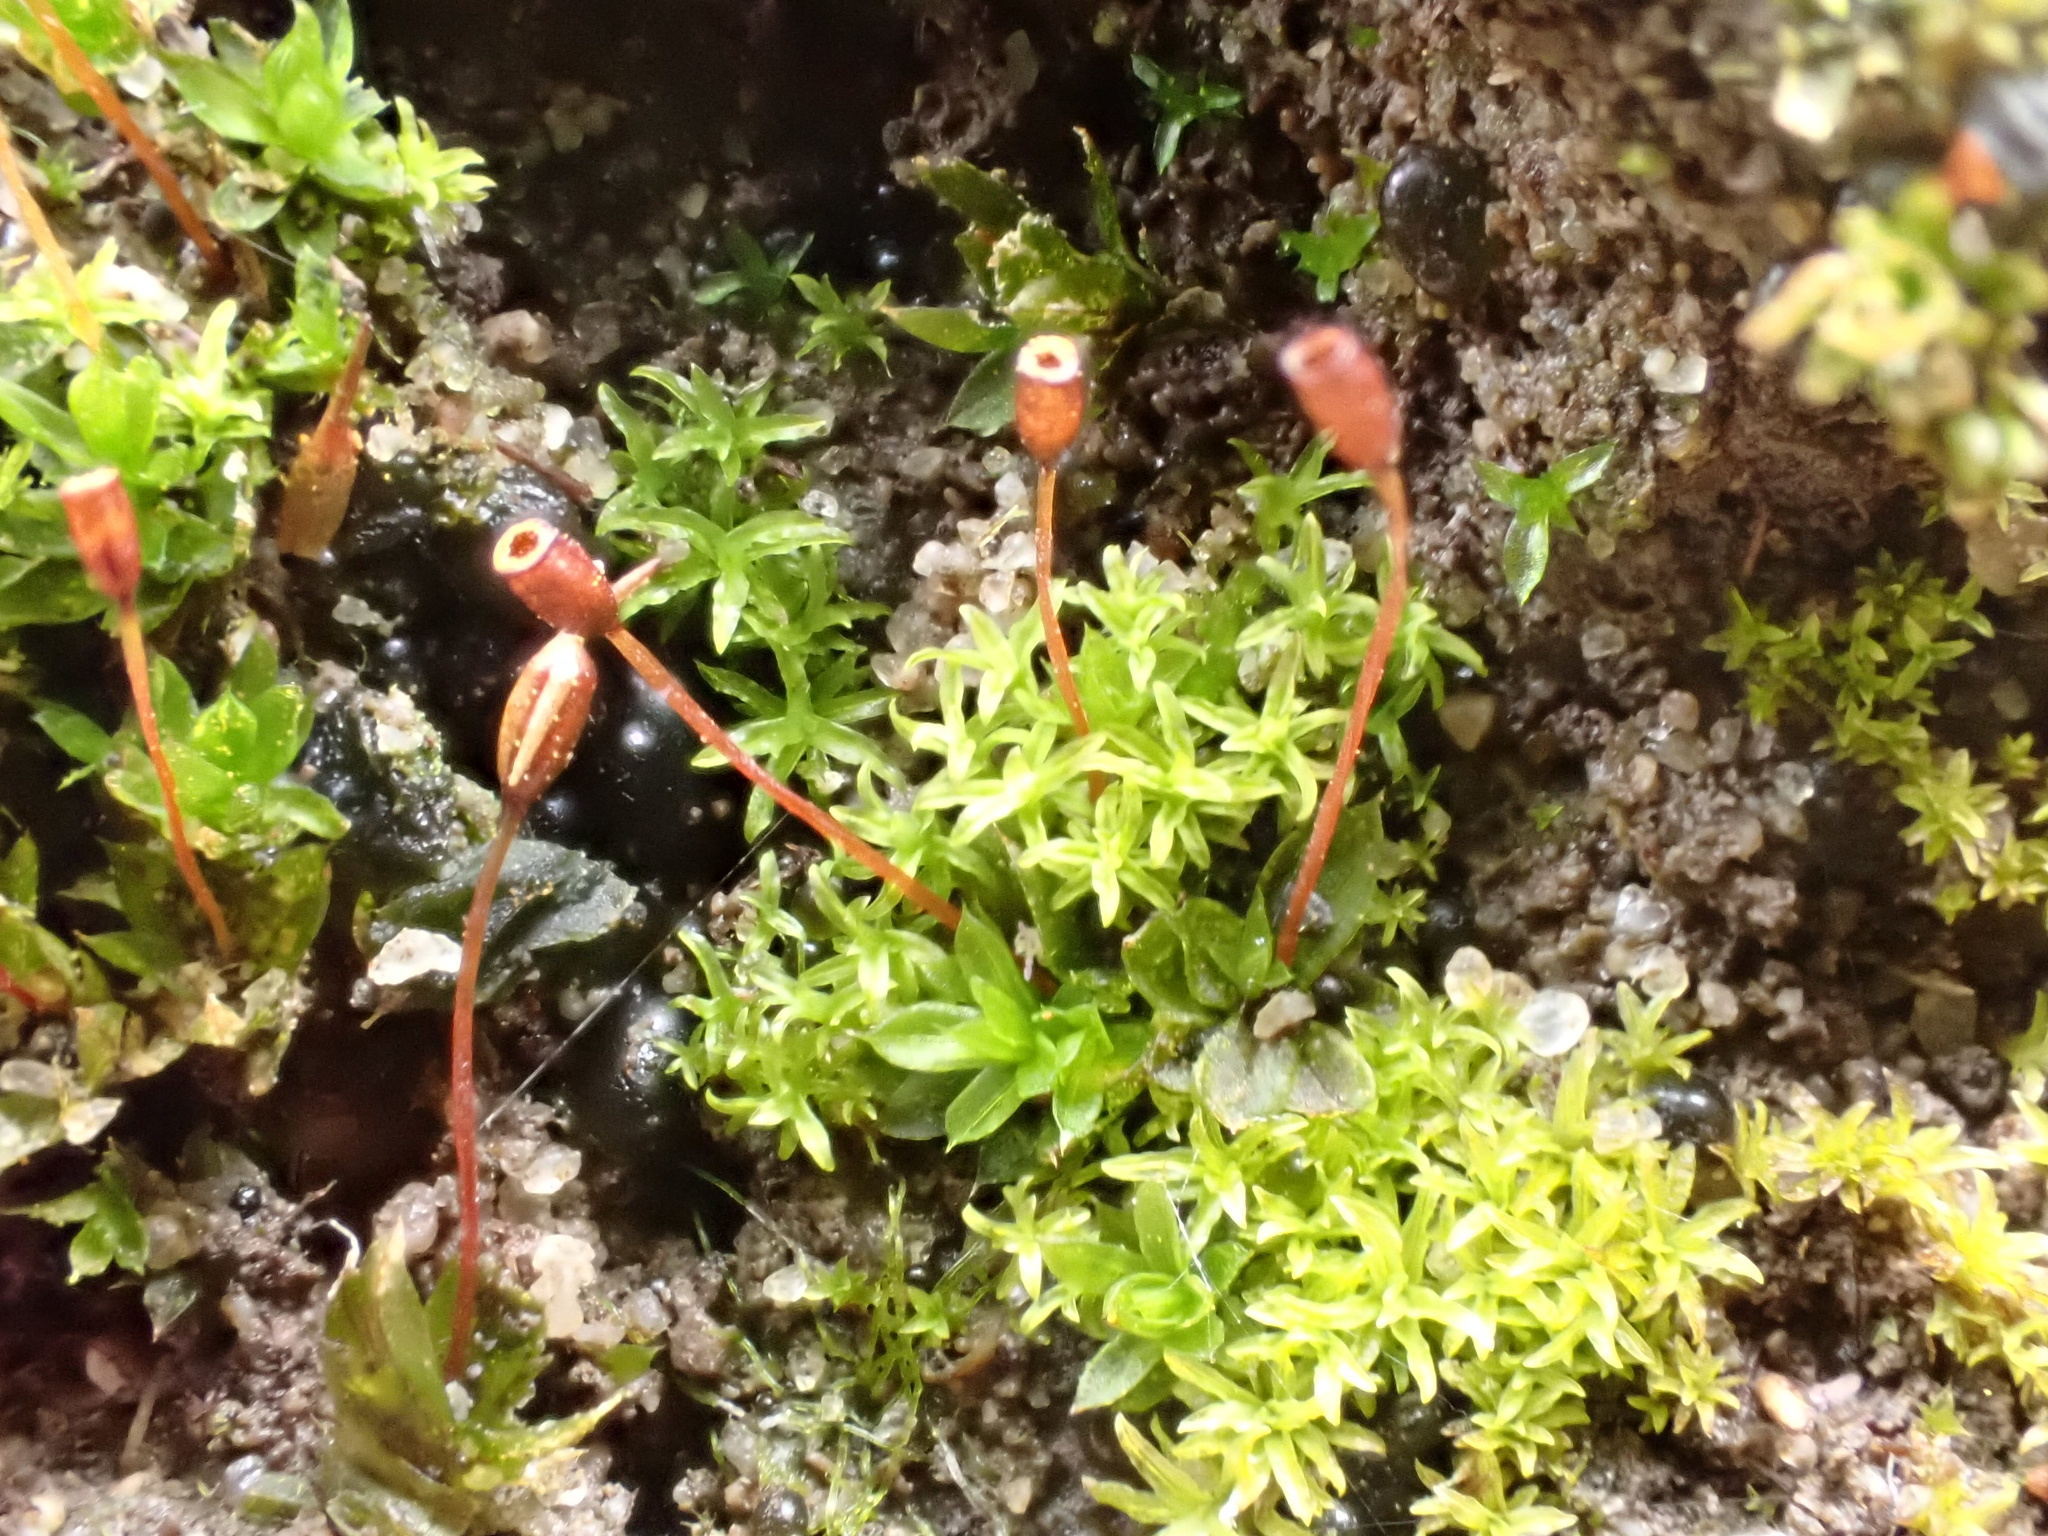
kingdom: Plantae
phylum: Bryophyta
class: Bryopsida
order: Pottiales
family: Pottiaceae
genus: Tortula
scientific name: Tortula caucasica
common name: Blunt-fruited pottia
